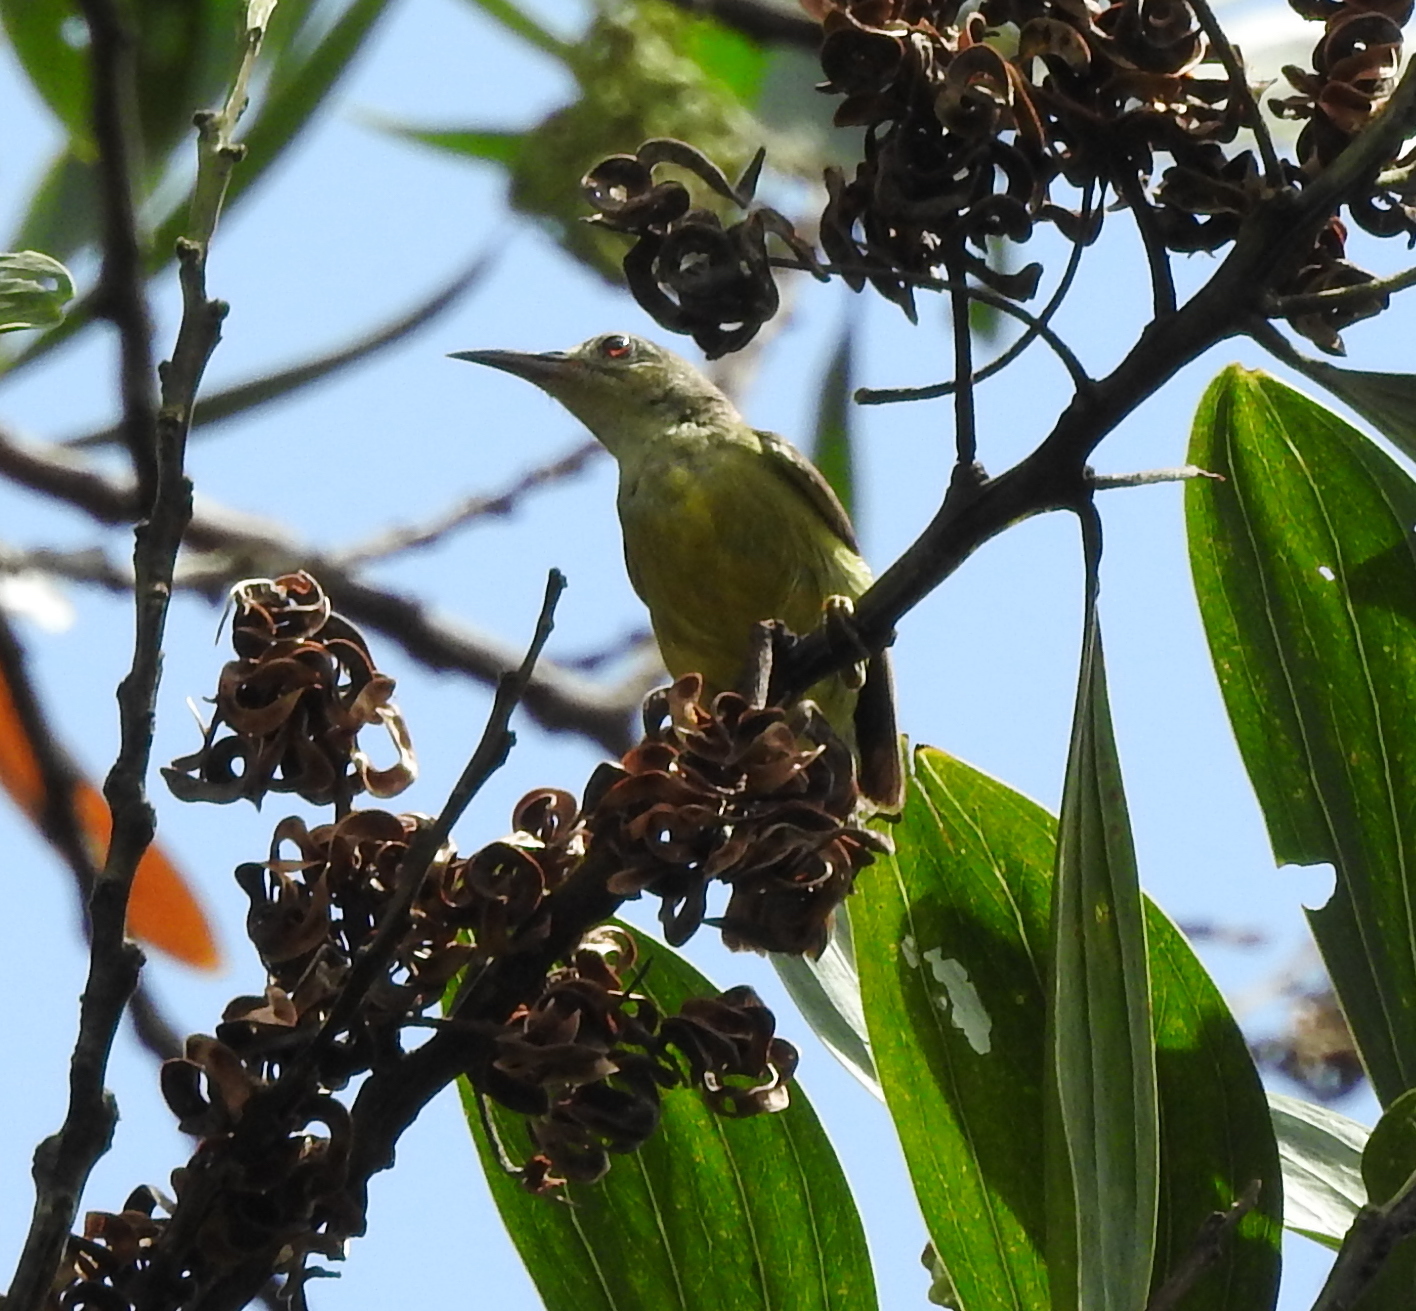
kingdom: Animalia
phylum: Chordata
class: Aves
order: Passeriformes
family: Nectariniidae
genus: Anthreptes
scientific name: Anthreptes malacensis
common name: Brown-throated sunbird
